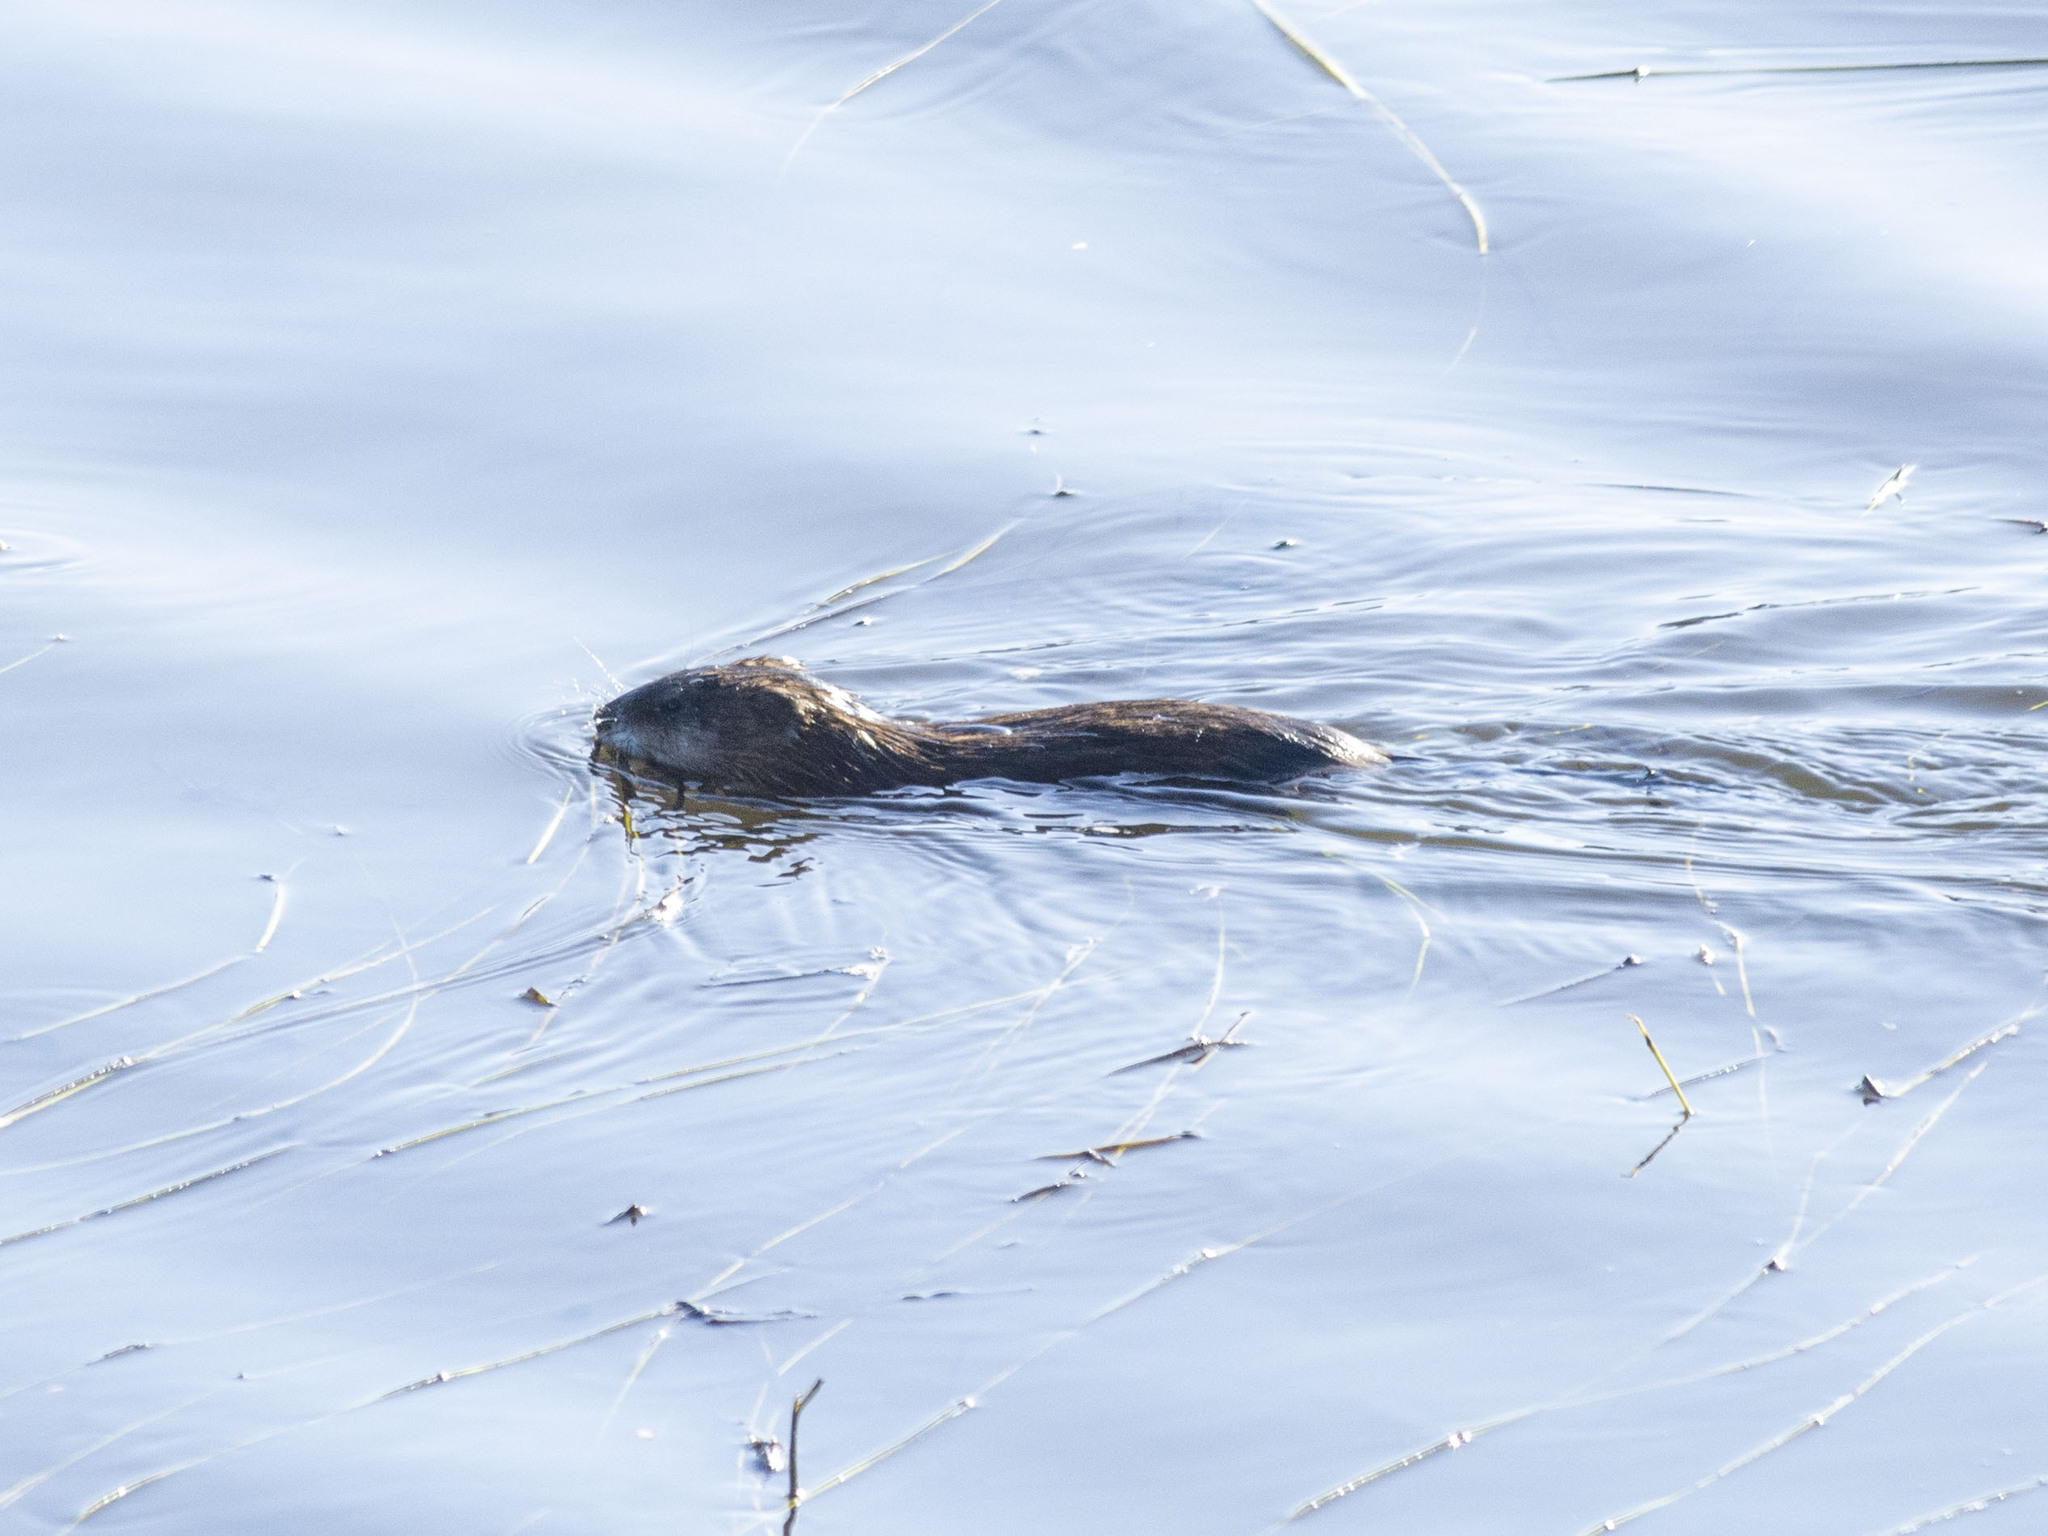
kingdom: Animalia
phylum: Chordata
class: Mammalia
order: Rodentia
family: Cricetidae
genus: Ondatra
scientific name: Ondatra zibethicus
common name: Muskrat
